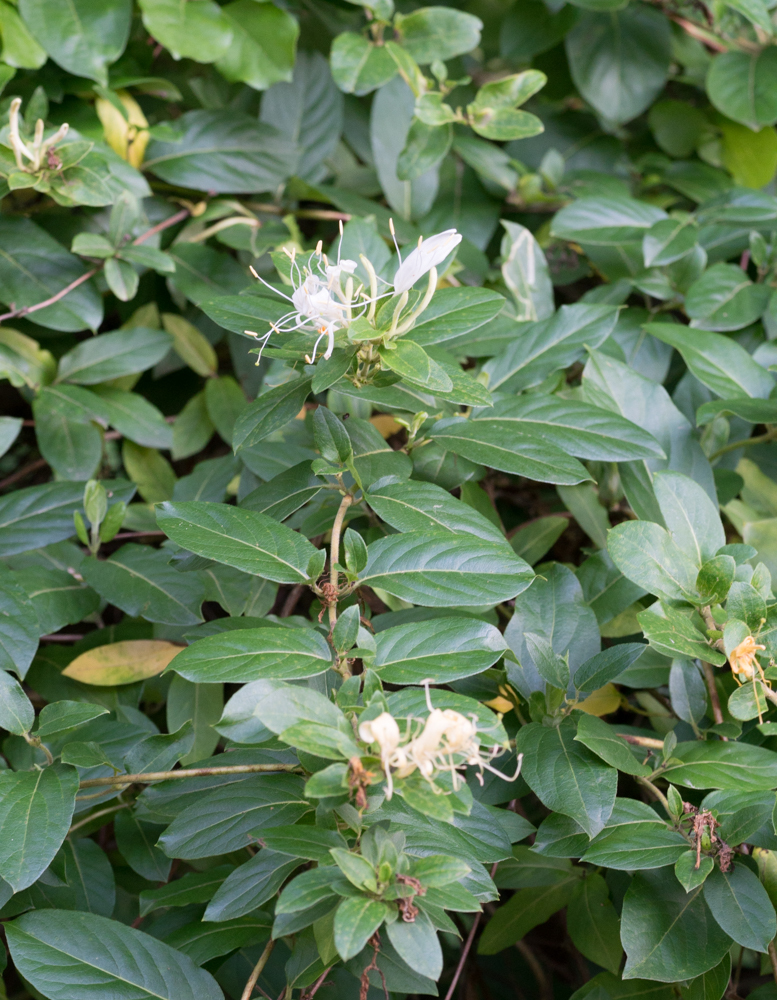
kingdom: Plantae
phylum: Tracheophyta
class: Magnoliopsida
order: Dipsacales
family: Caprifoliaceae
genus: Lonicera
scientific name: Lonicera japonica
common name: Japanese honeysuckle
